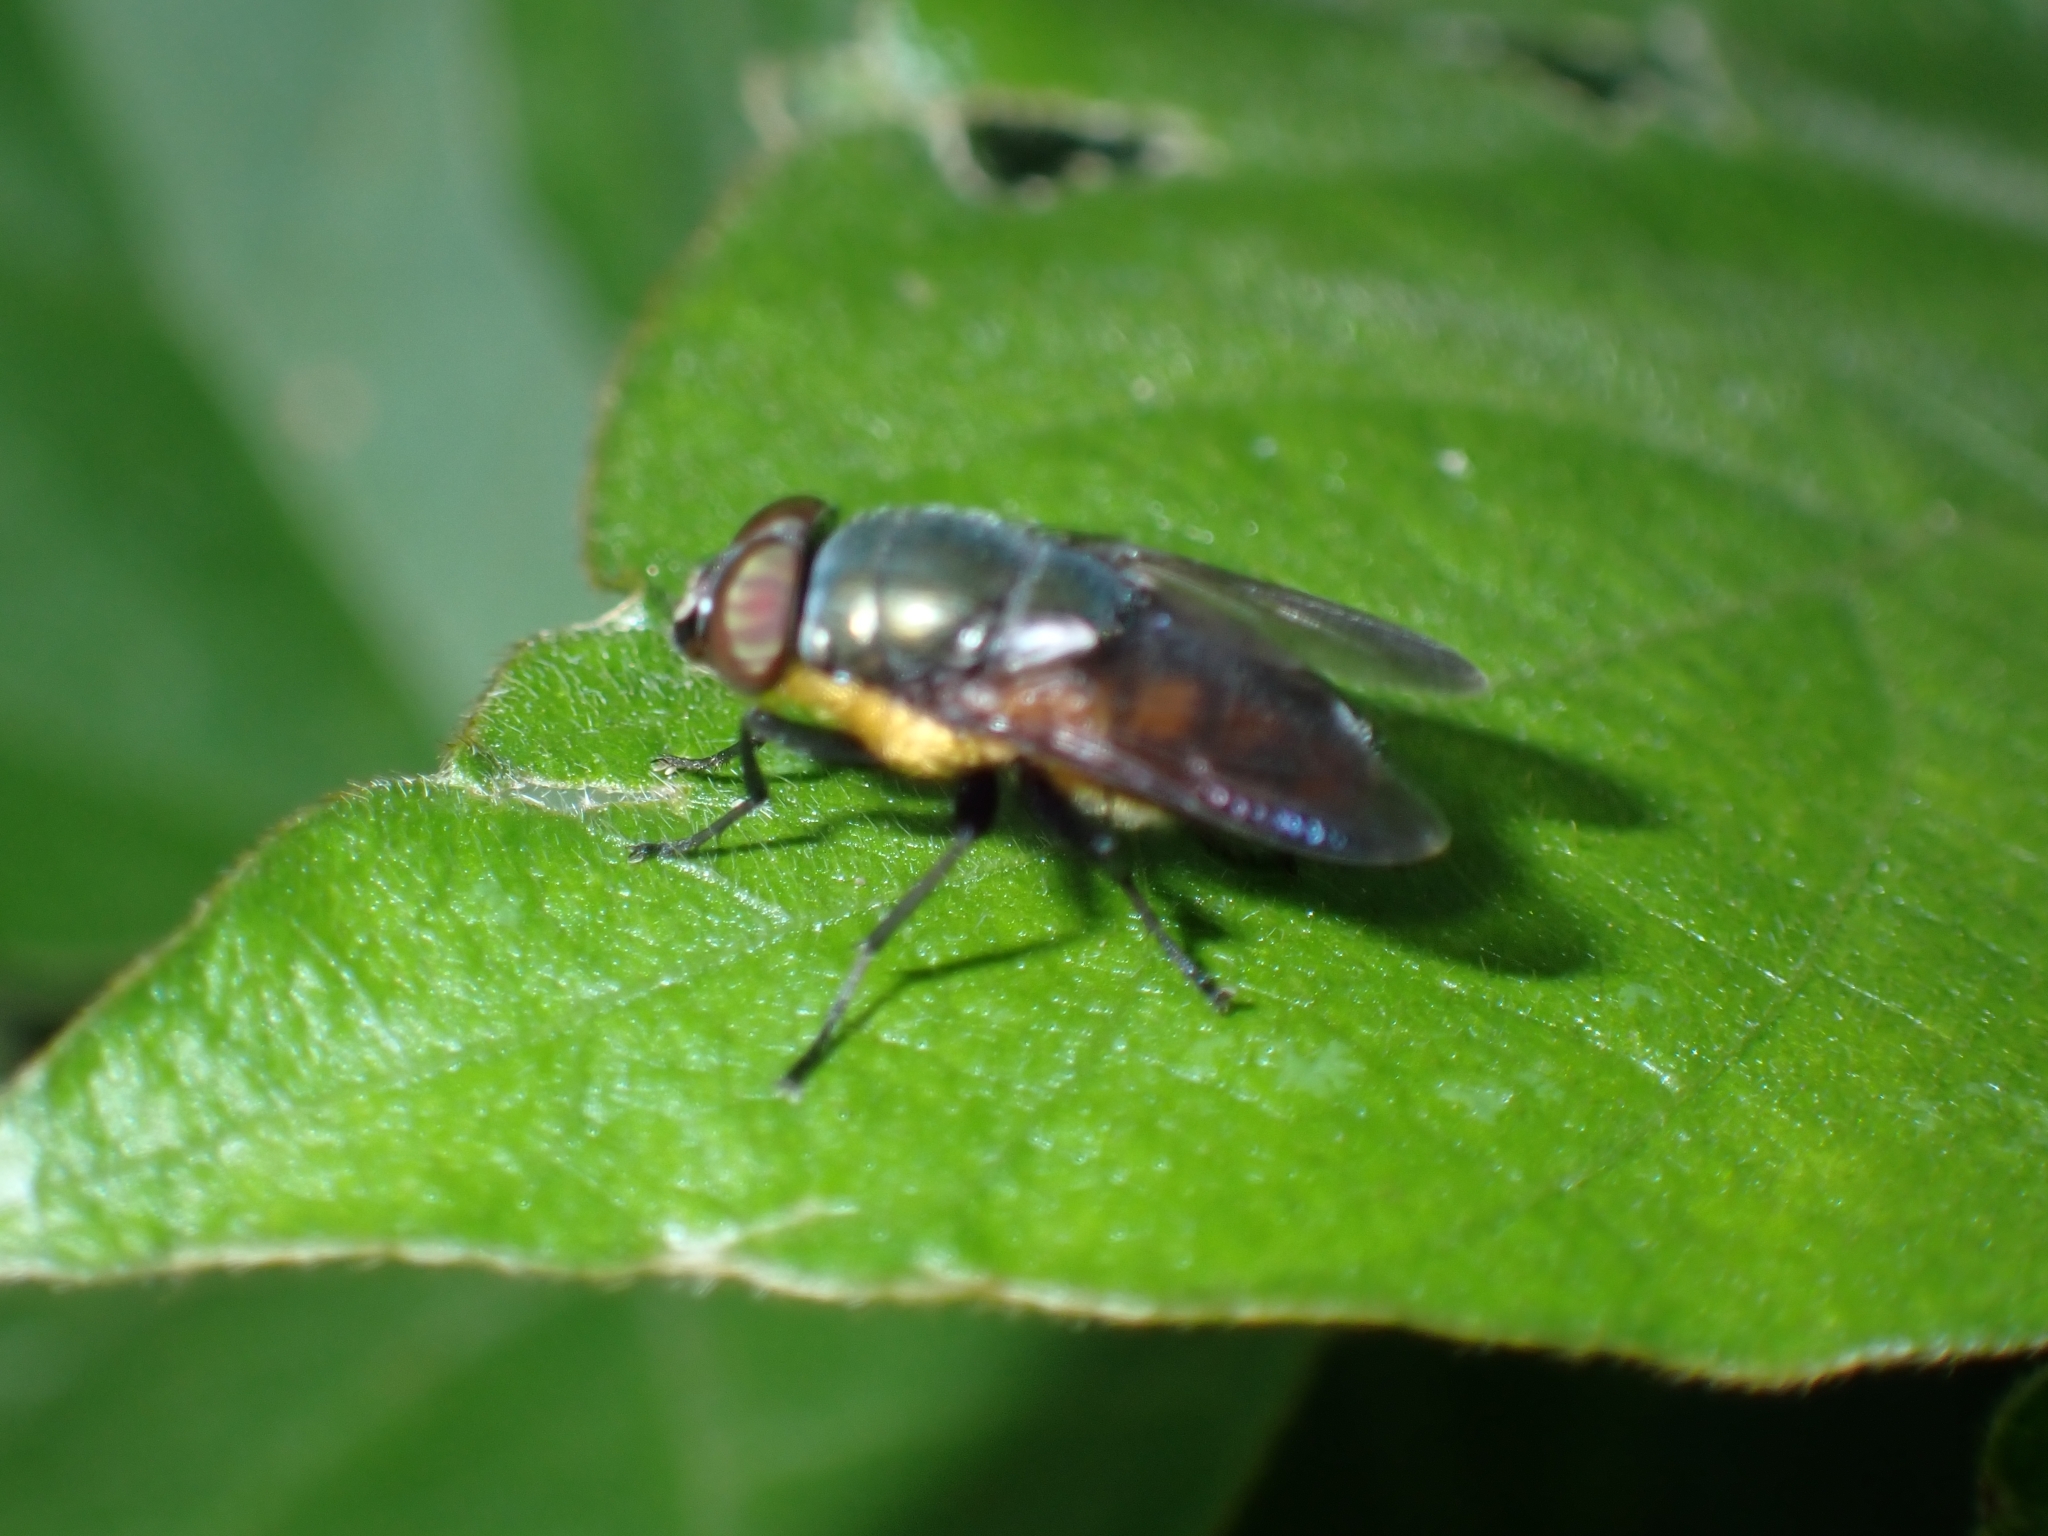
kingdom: Animalia
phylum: Arthropoda
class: Insecta
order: Diptera
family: Calliphoridae
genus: Idiellopsis
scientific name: Idiellopsis xanthogaster
